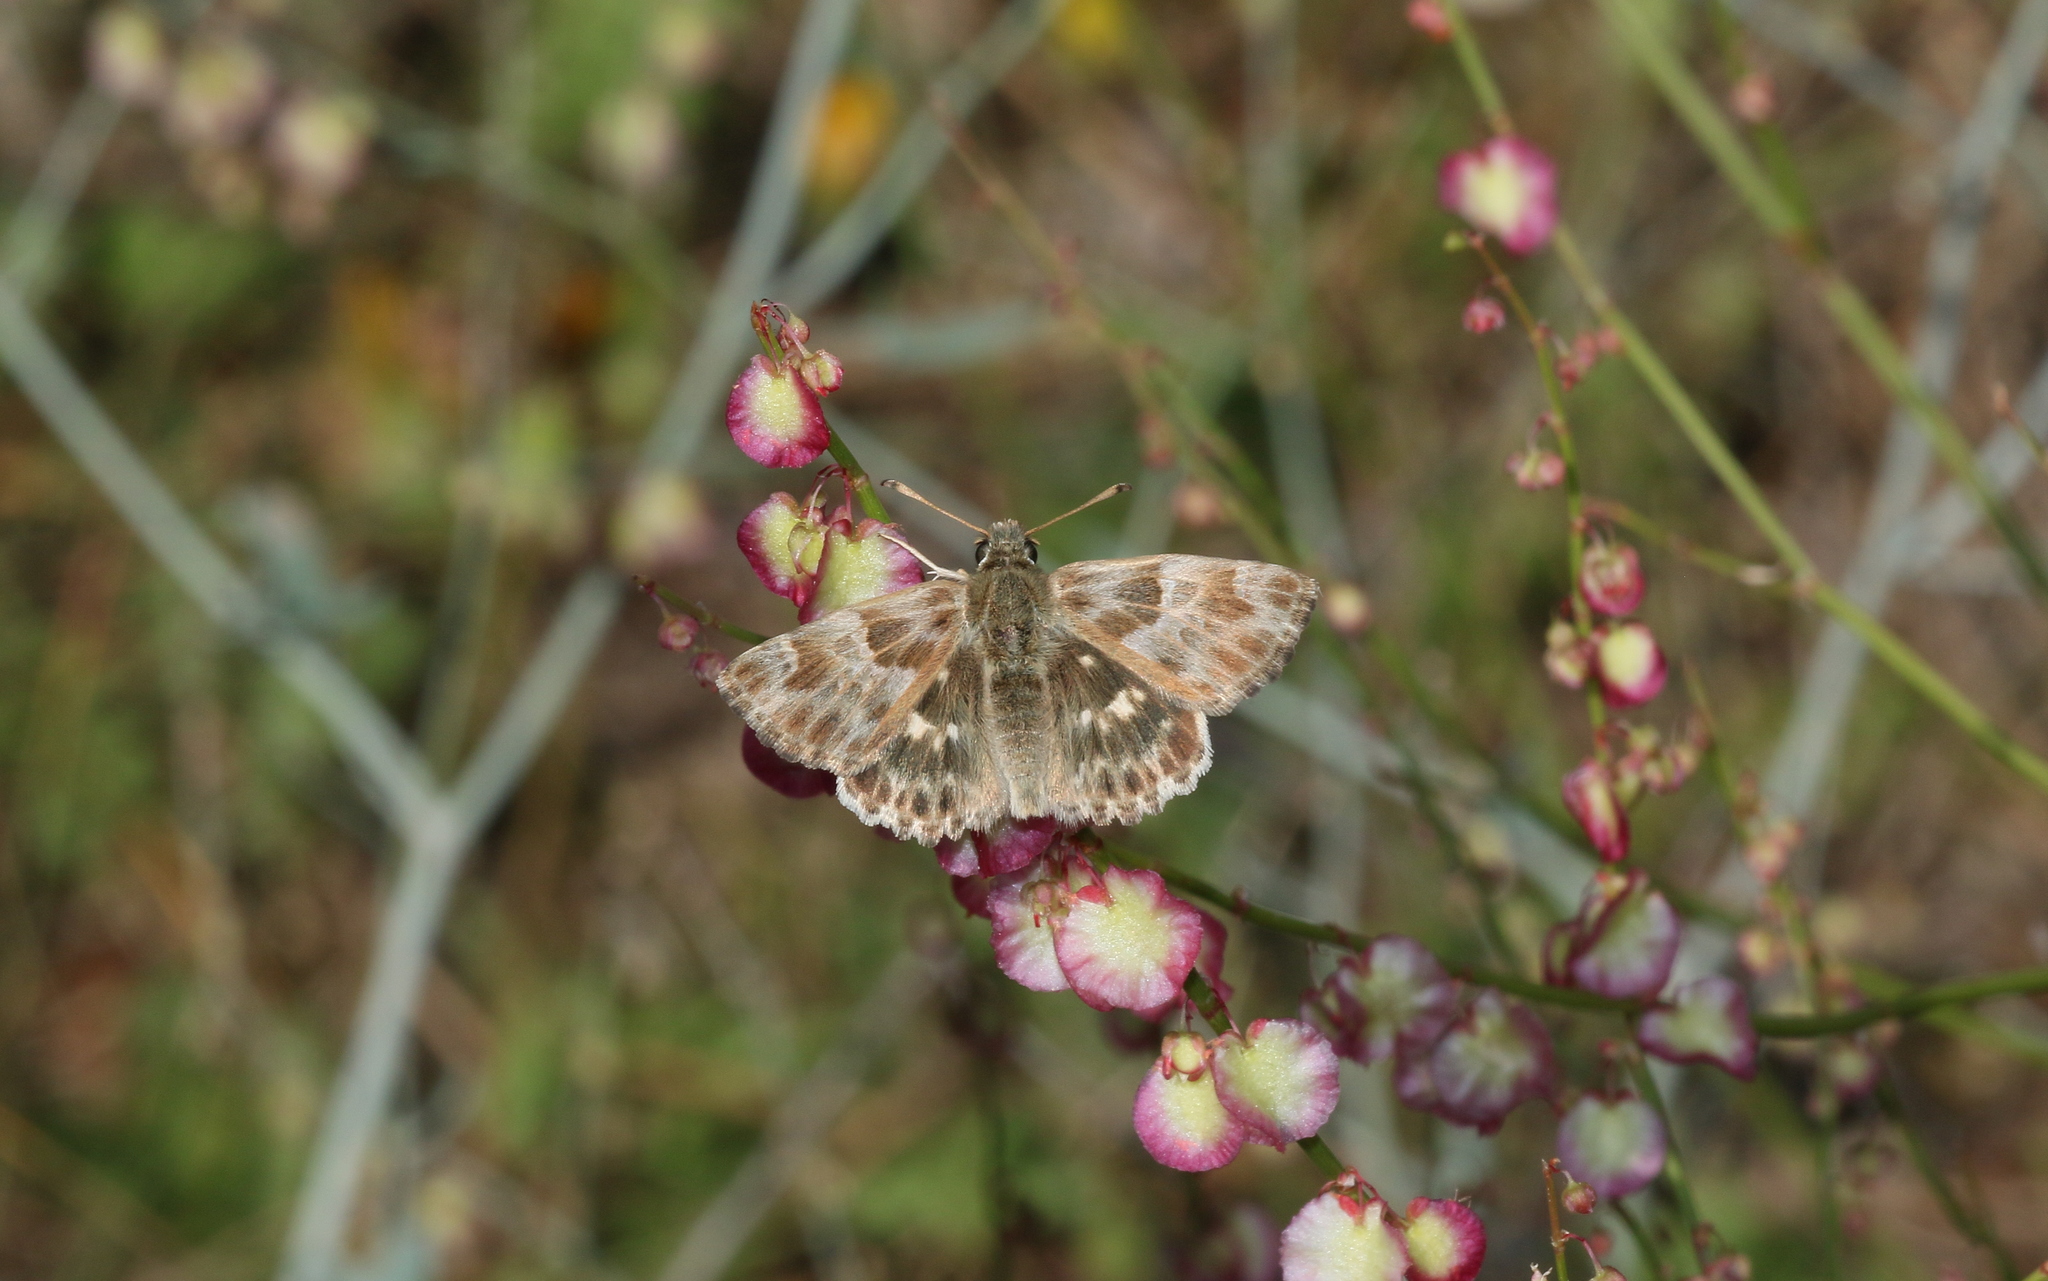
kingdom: Animalia
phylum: Arthropoda
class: Insecta
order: Lepidoptera
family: Hesperiidae
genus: Syrichtus
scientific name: Syrichtus Muschampia baeticus
